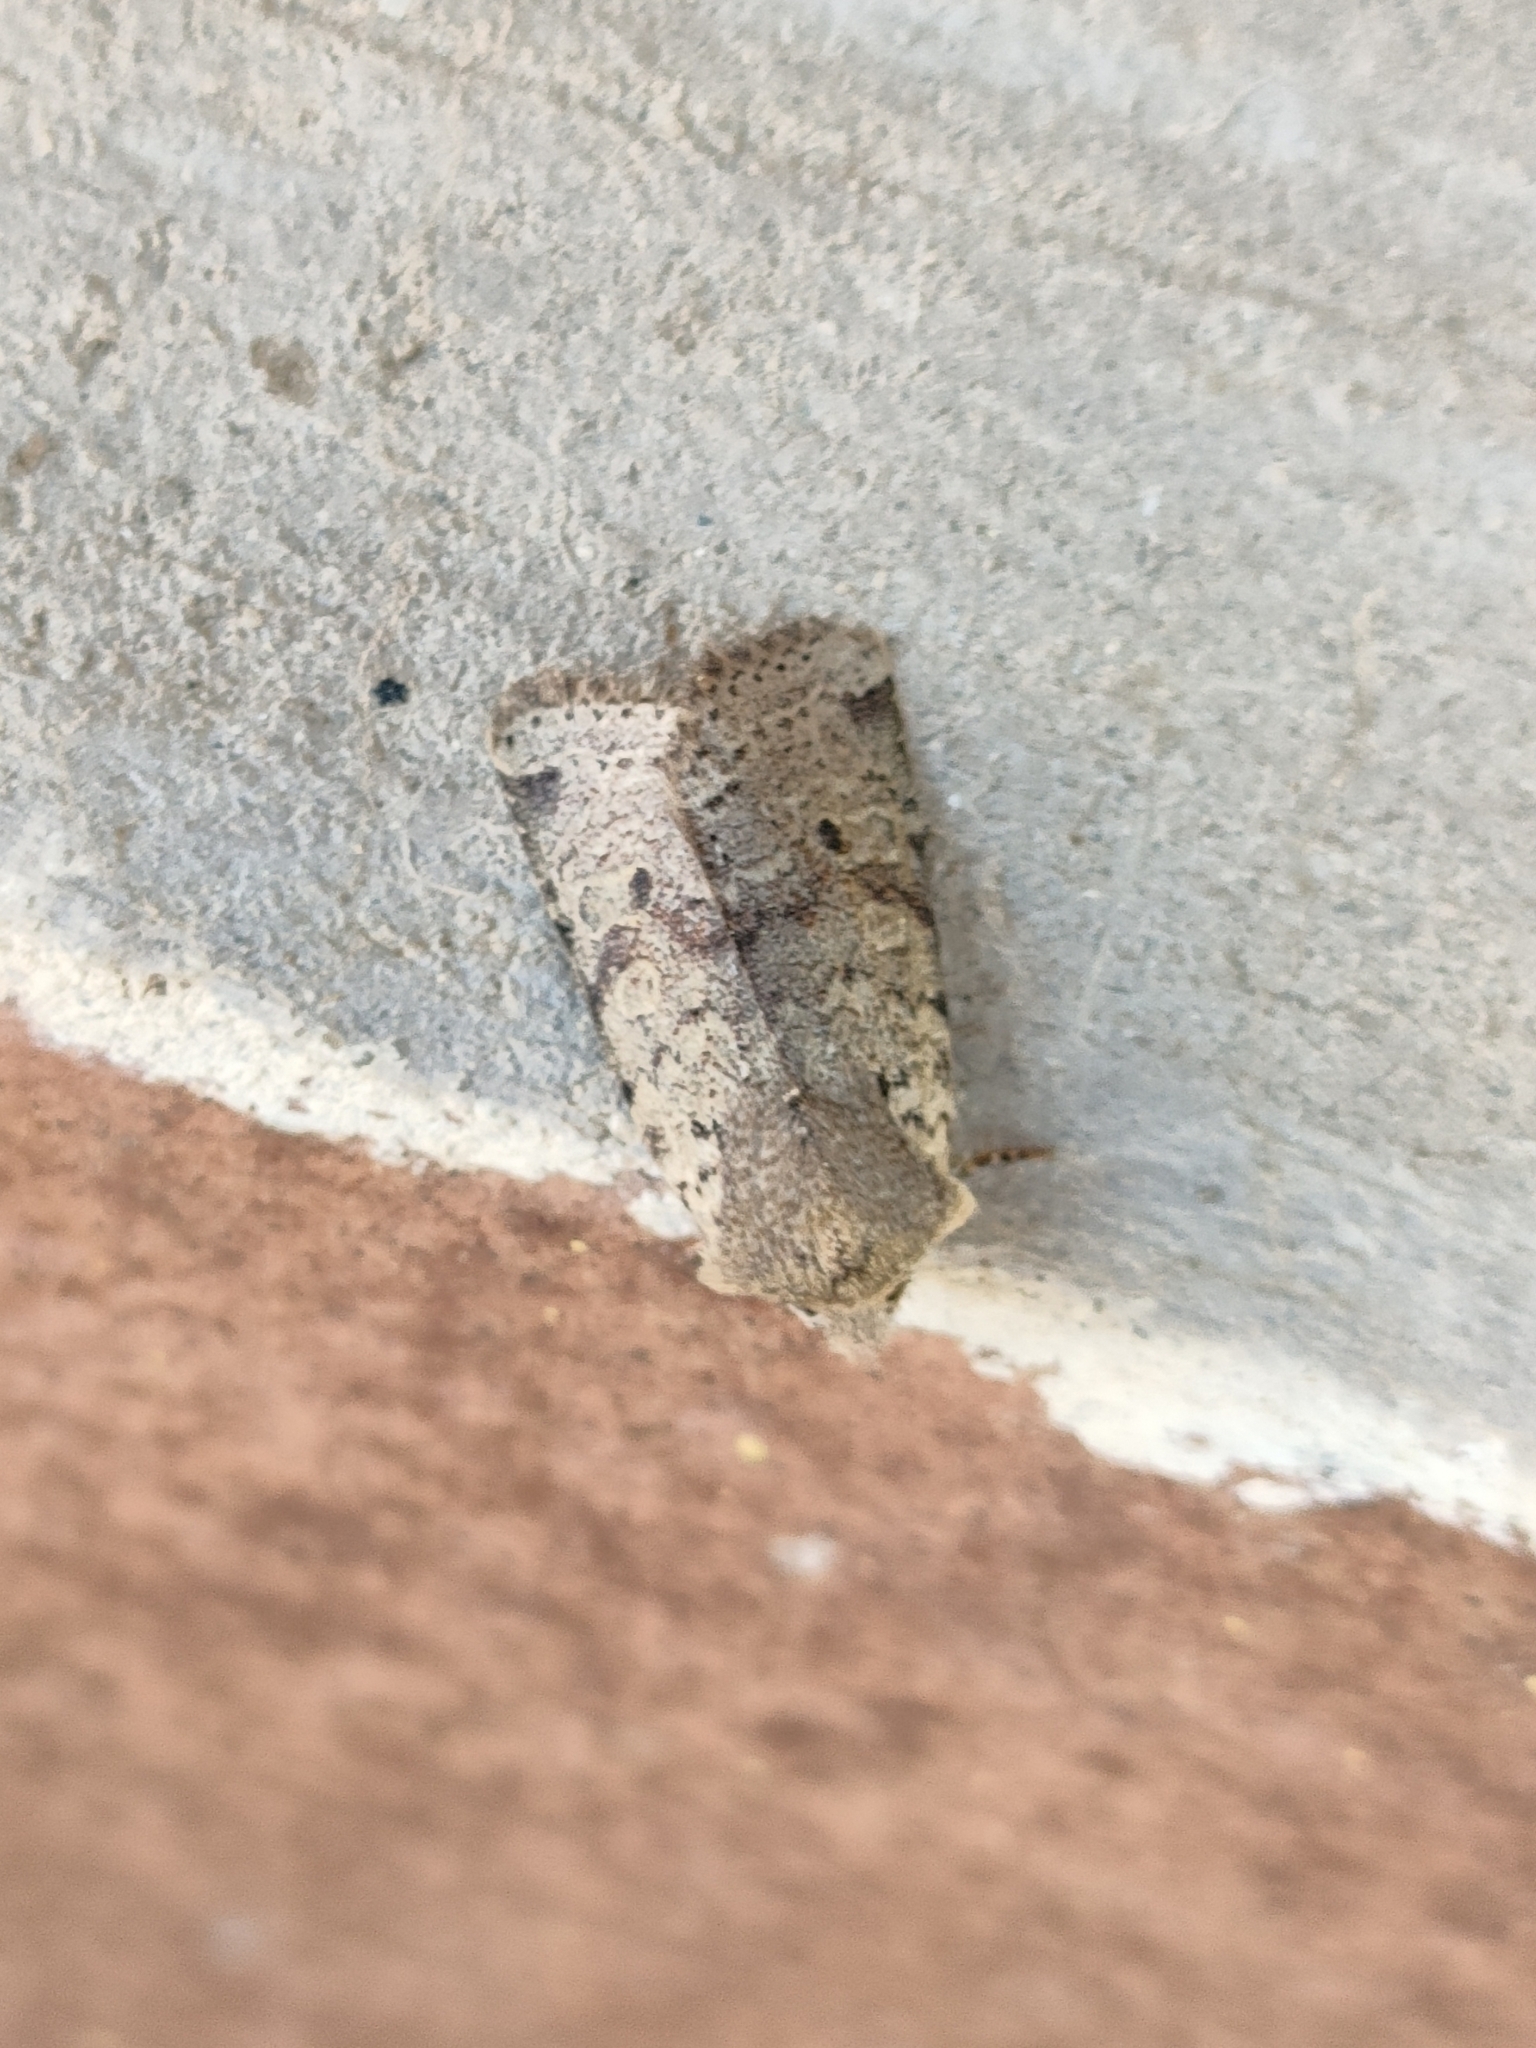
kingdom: Animalia
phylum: Arthropoda
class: Insecta
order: Lepidoptera
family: Noctuidae
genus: Agrochola
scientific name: Agrochola ruticilla
